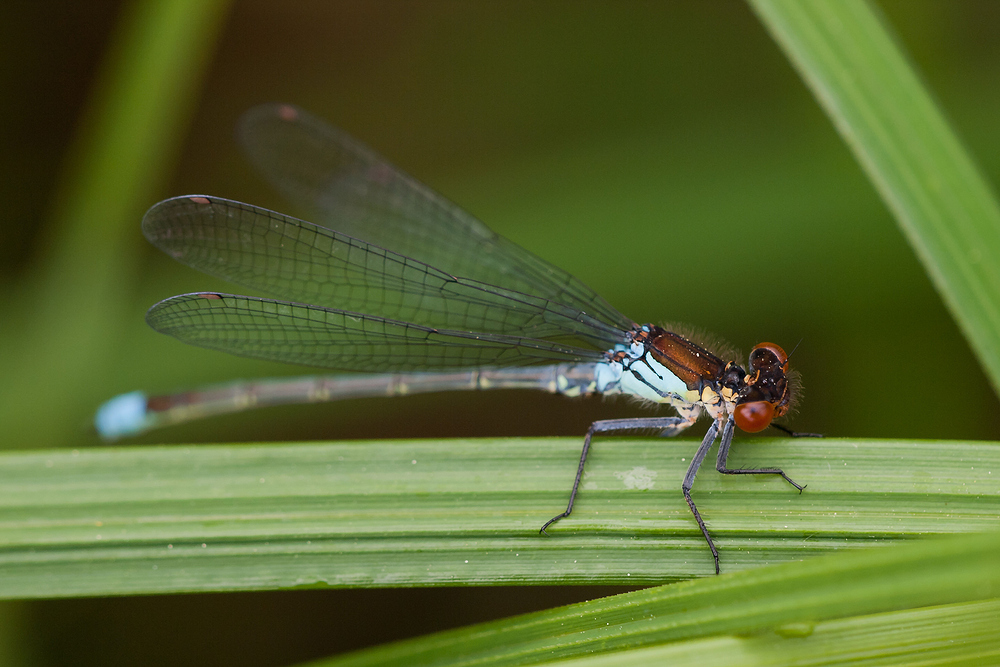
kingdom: Animalia
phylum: Arthropoda
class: Insecta
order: Odonata
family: Coenagrionidae
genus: Erythromma
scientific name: Erythromma najas
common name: Red-eyed damselfly
